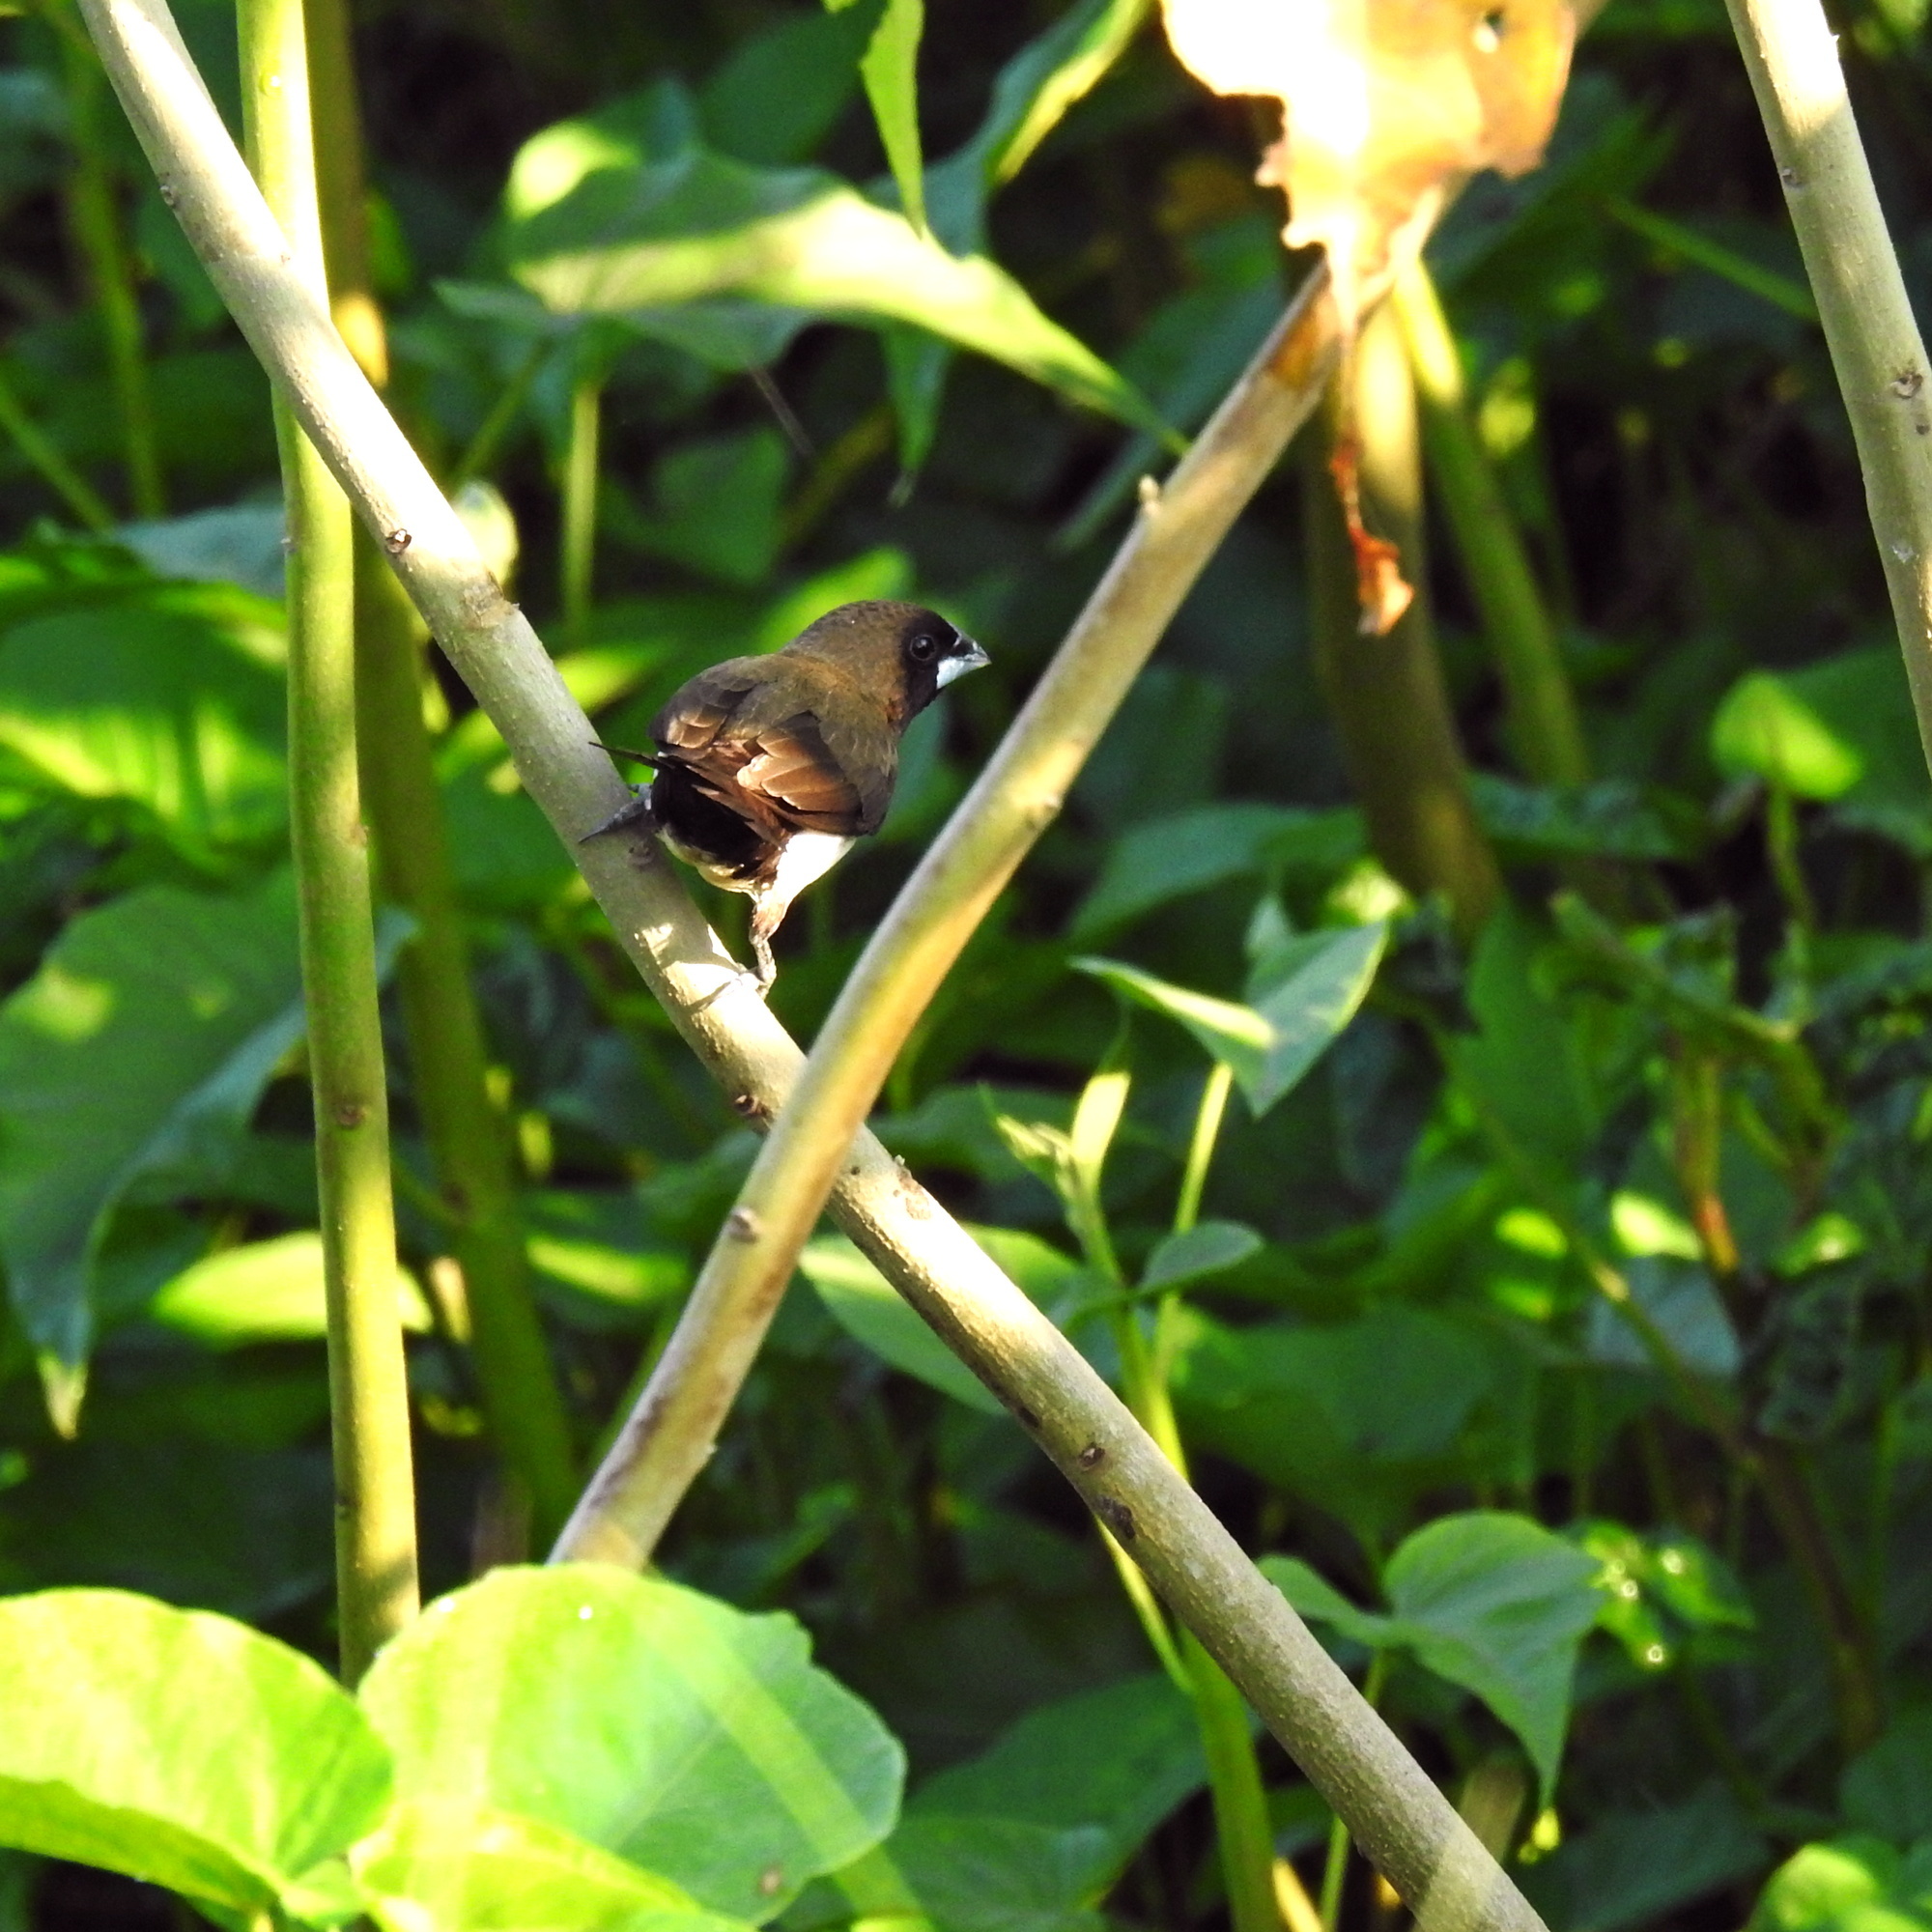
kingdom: Animalia
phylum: Chordata
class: Aves
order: Passeriformes
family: Estrildidae
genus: Lonchura
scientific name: Lonchura leucogastroides
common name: Javan munia
